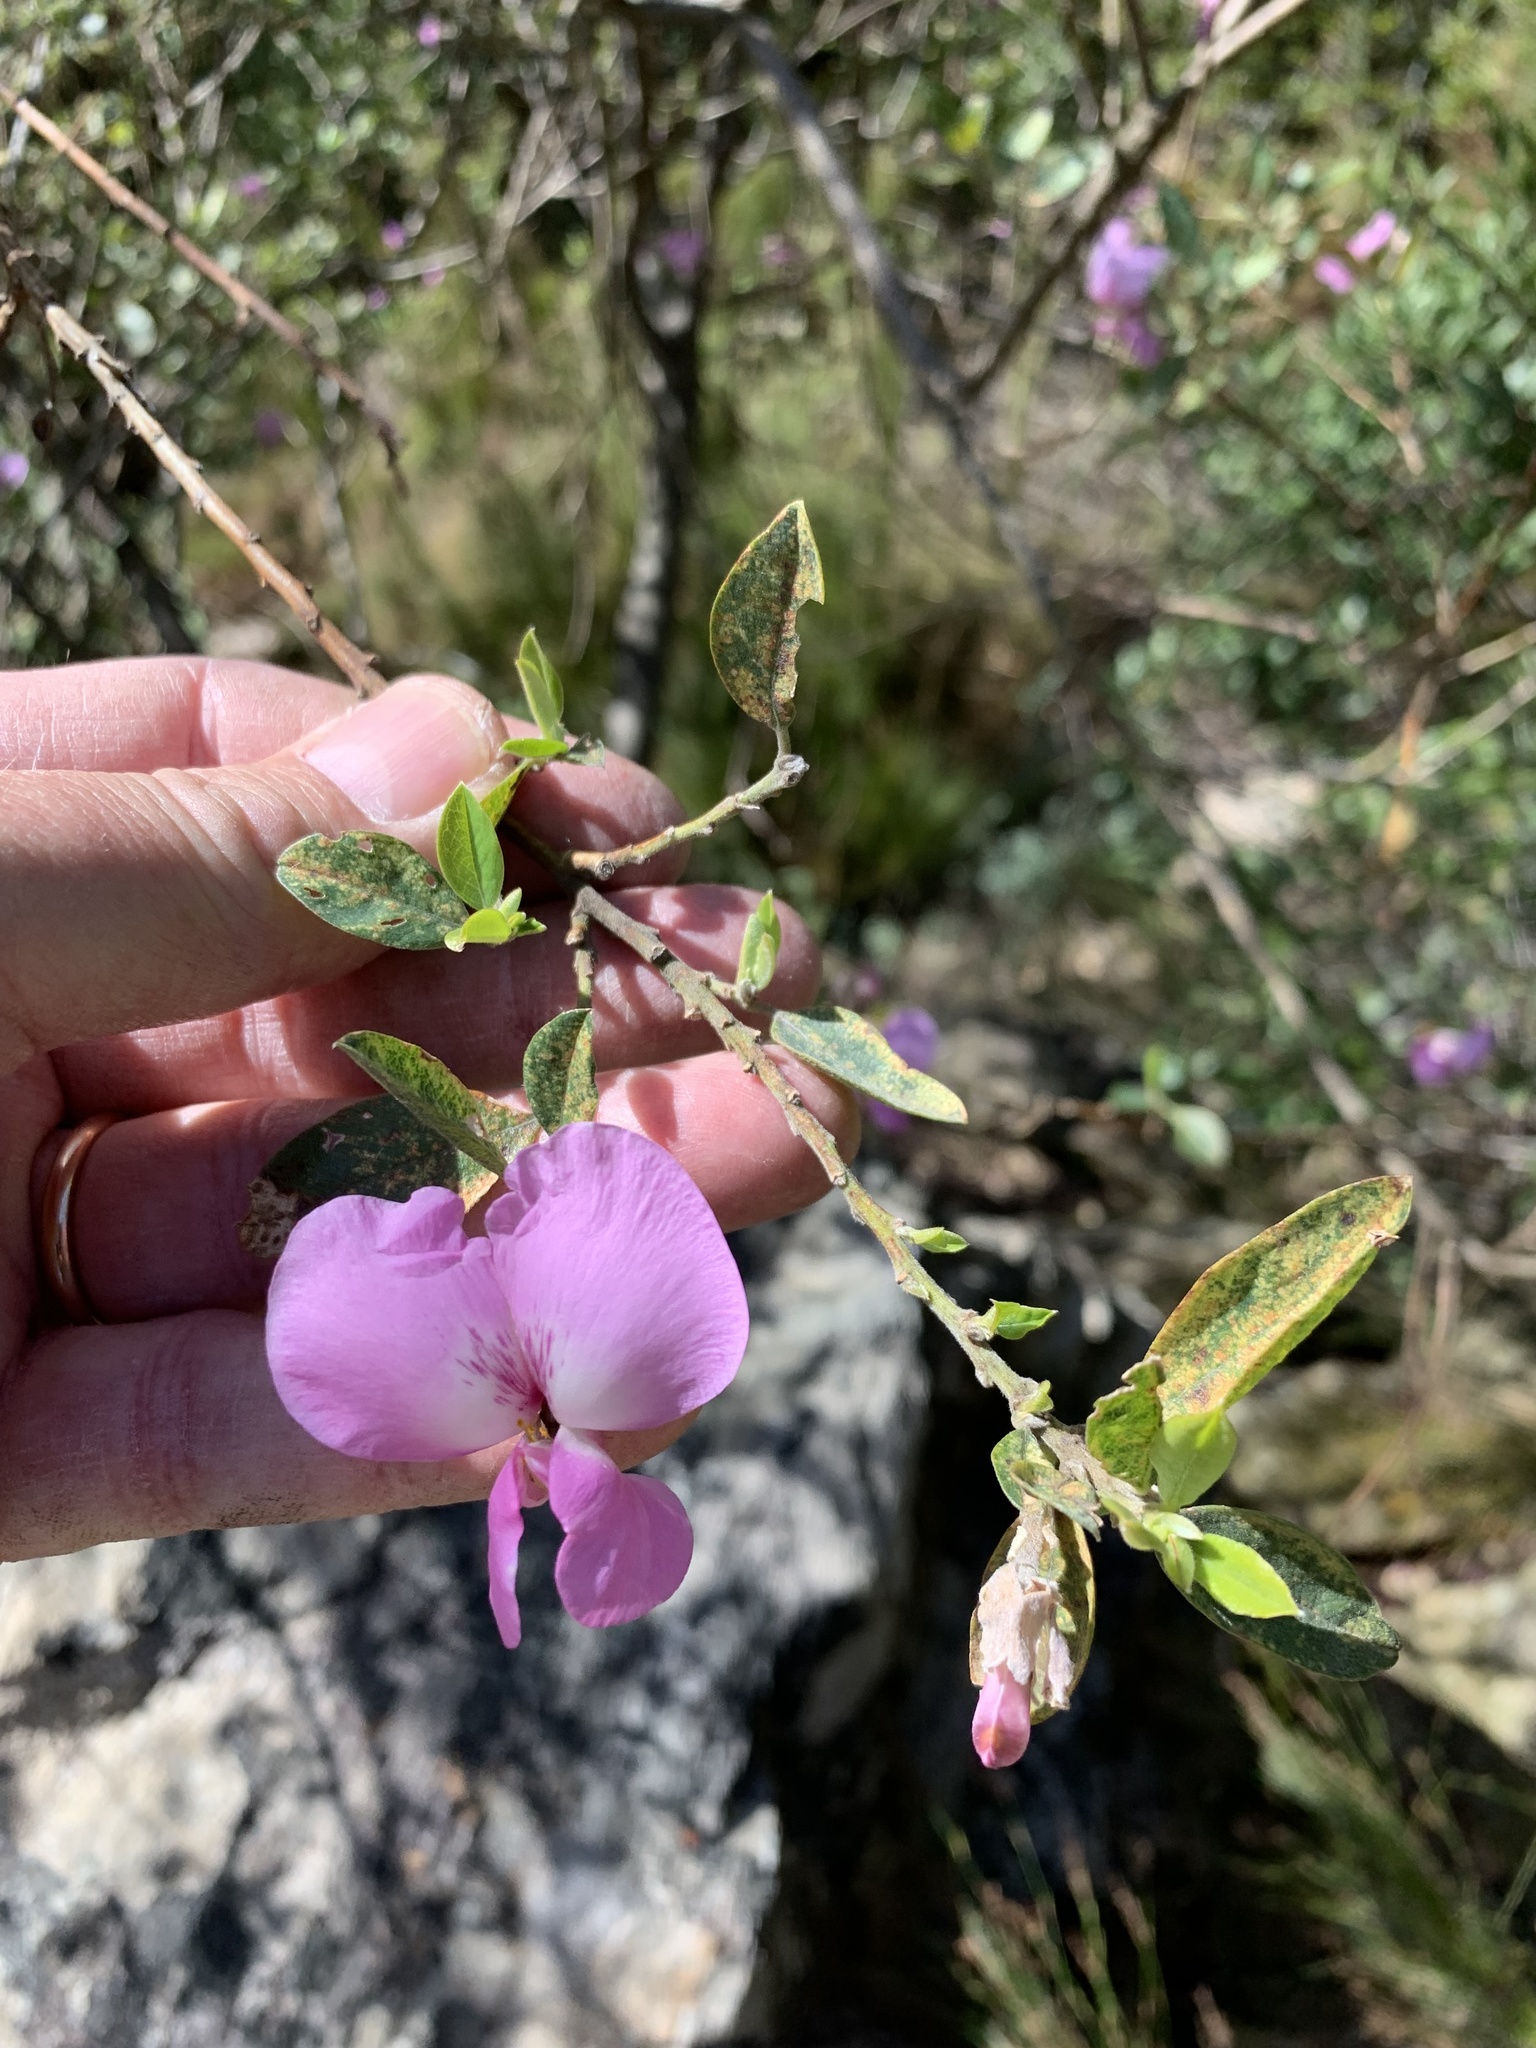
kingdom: Plantae
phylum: Tracheophyta
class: Magnoliopsida
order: Fabales
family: Fabaceae
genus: Podalyria
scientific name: Podalyria calyptrata
